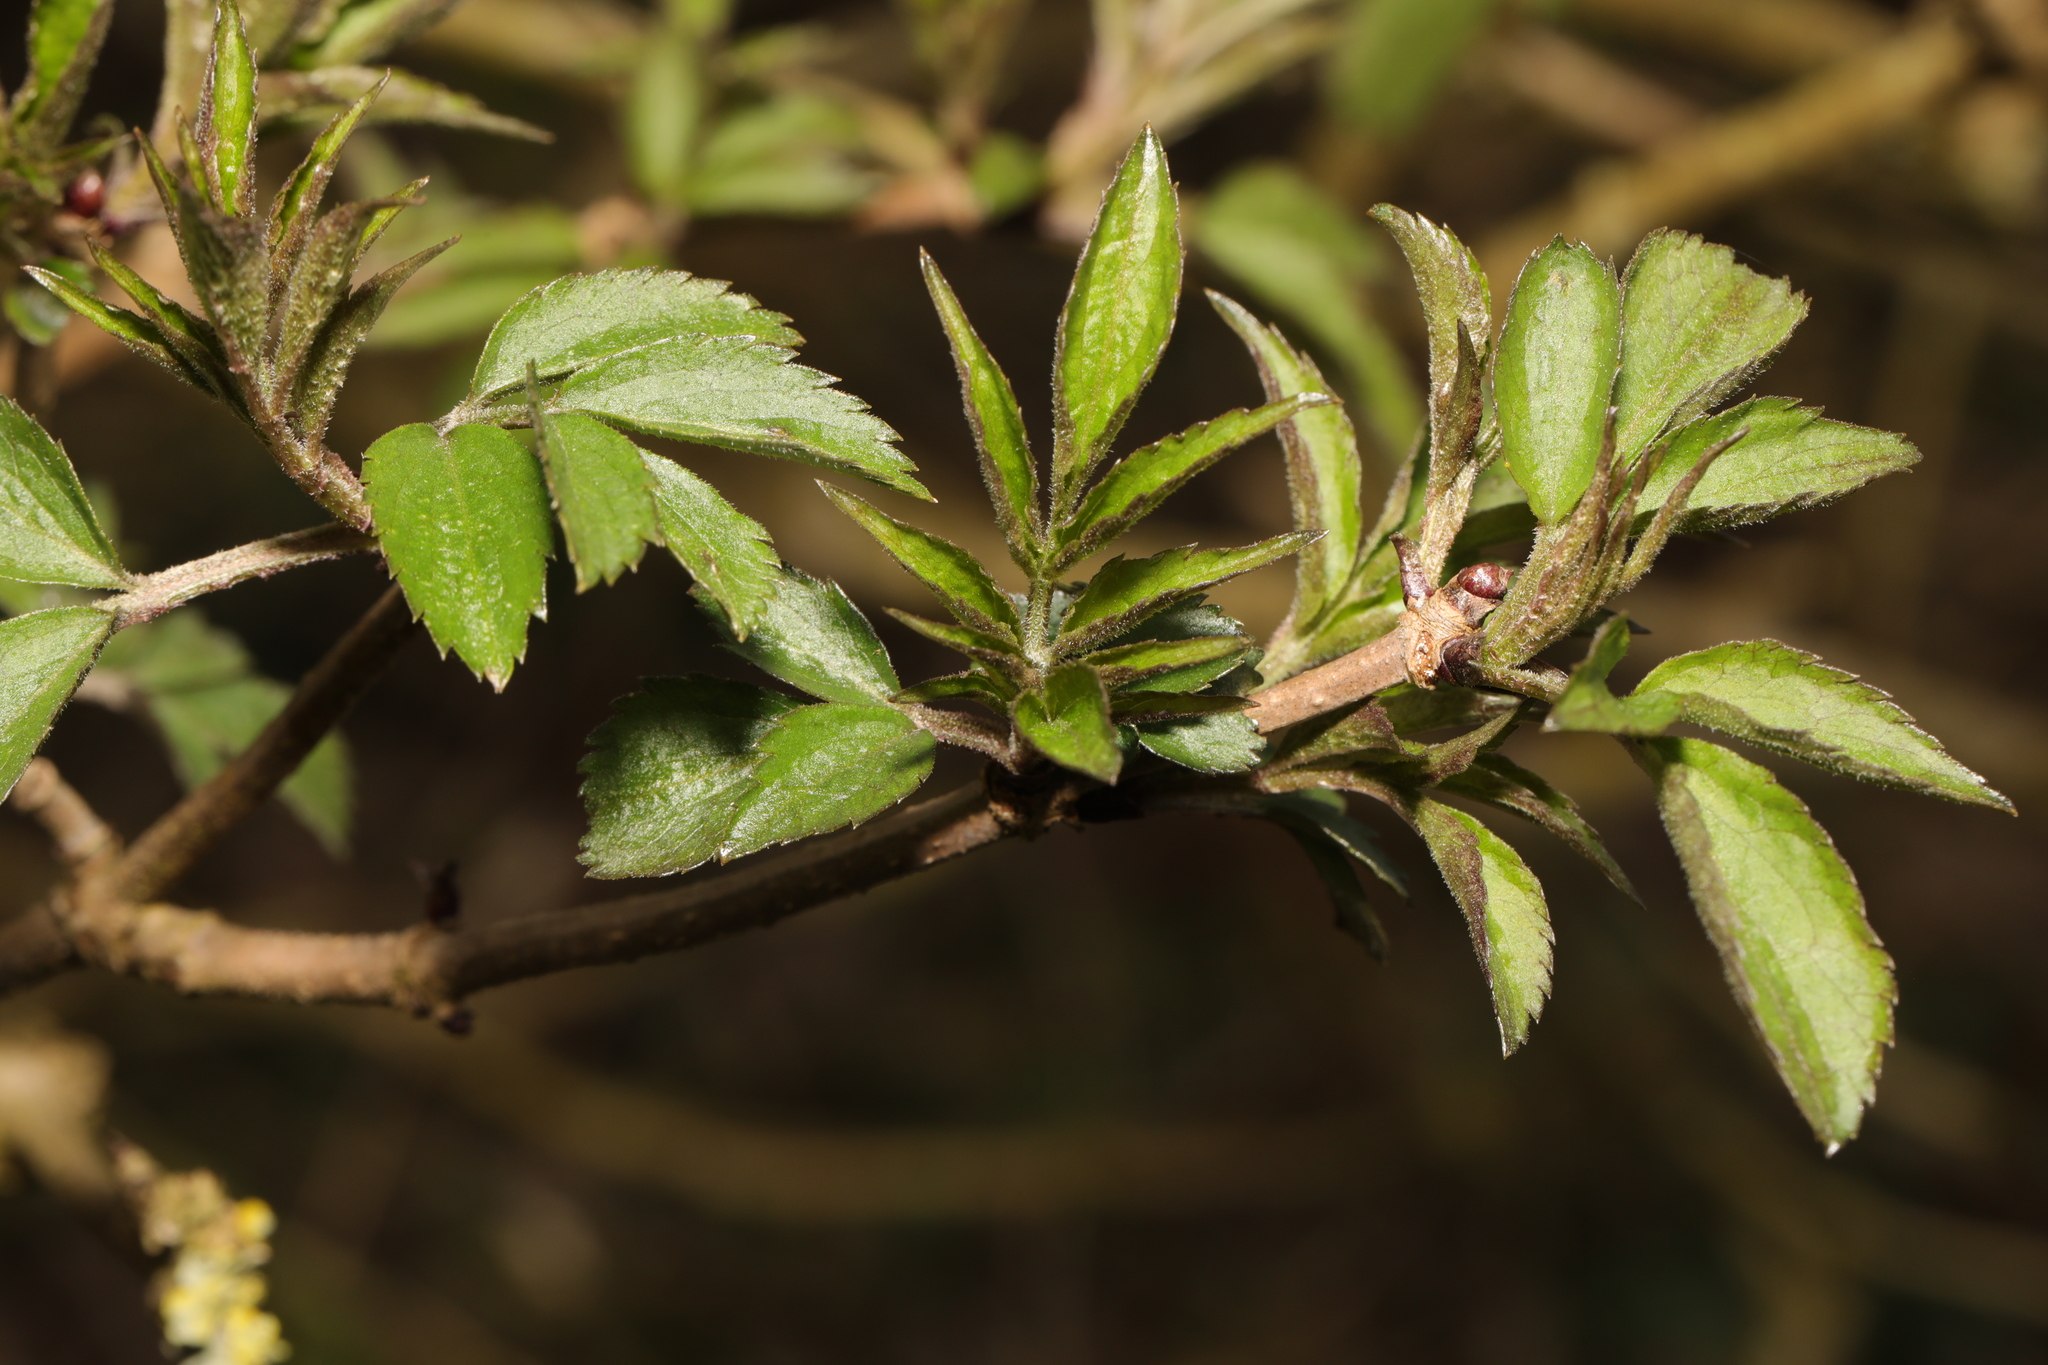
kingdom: Plantae
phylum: Tracheophyta
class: Magnoliopsida
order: Dipsacales
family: Viburnaceae
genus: Sambucus
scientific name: Sambucus nigra
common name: Elder
